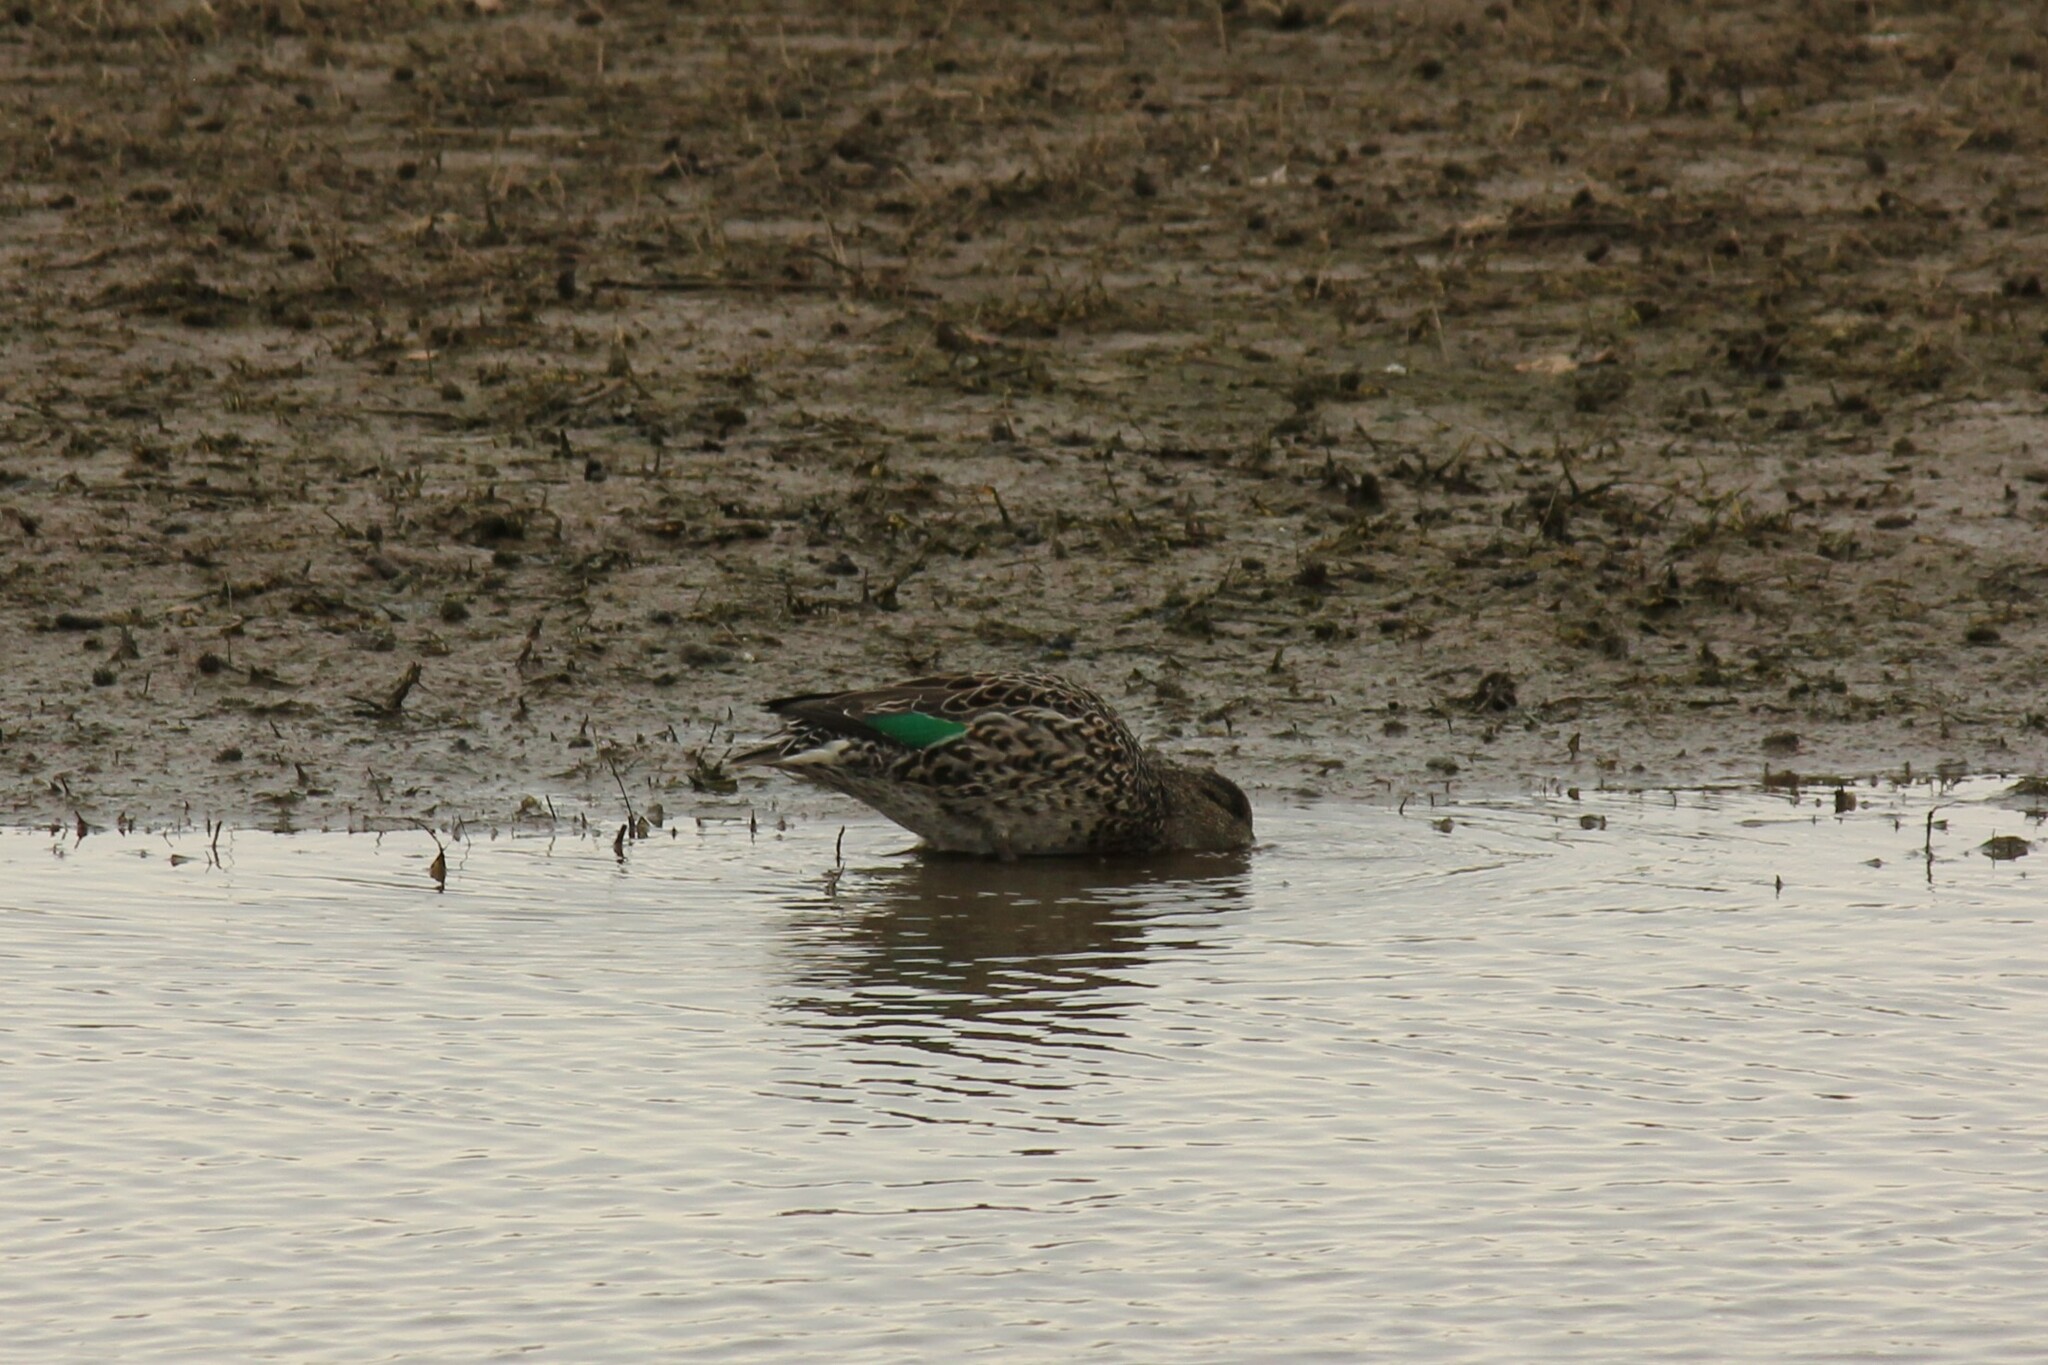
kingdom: Animalia
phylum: Chordata
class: Aves
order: Anseriformes
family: Anatidae
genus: Anas
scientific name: Anas crecca
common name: Eurasian teal
